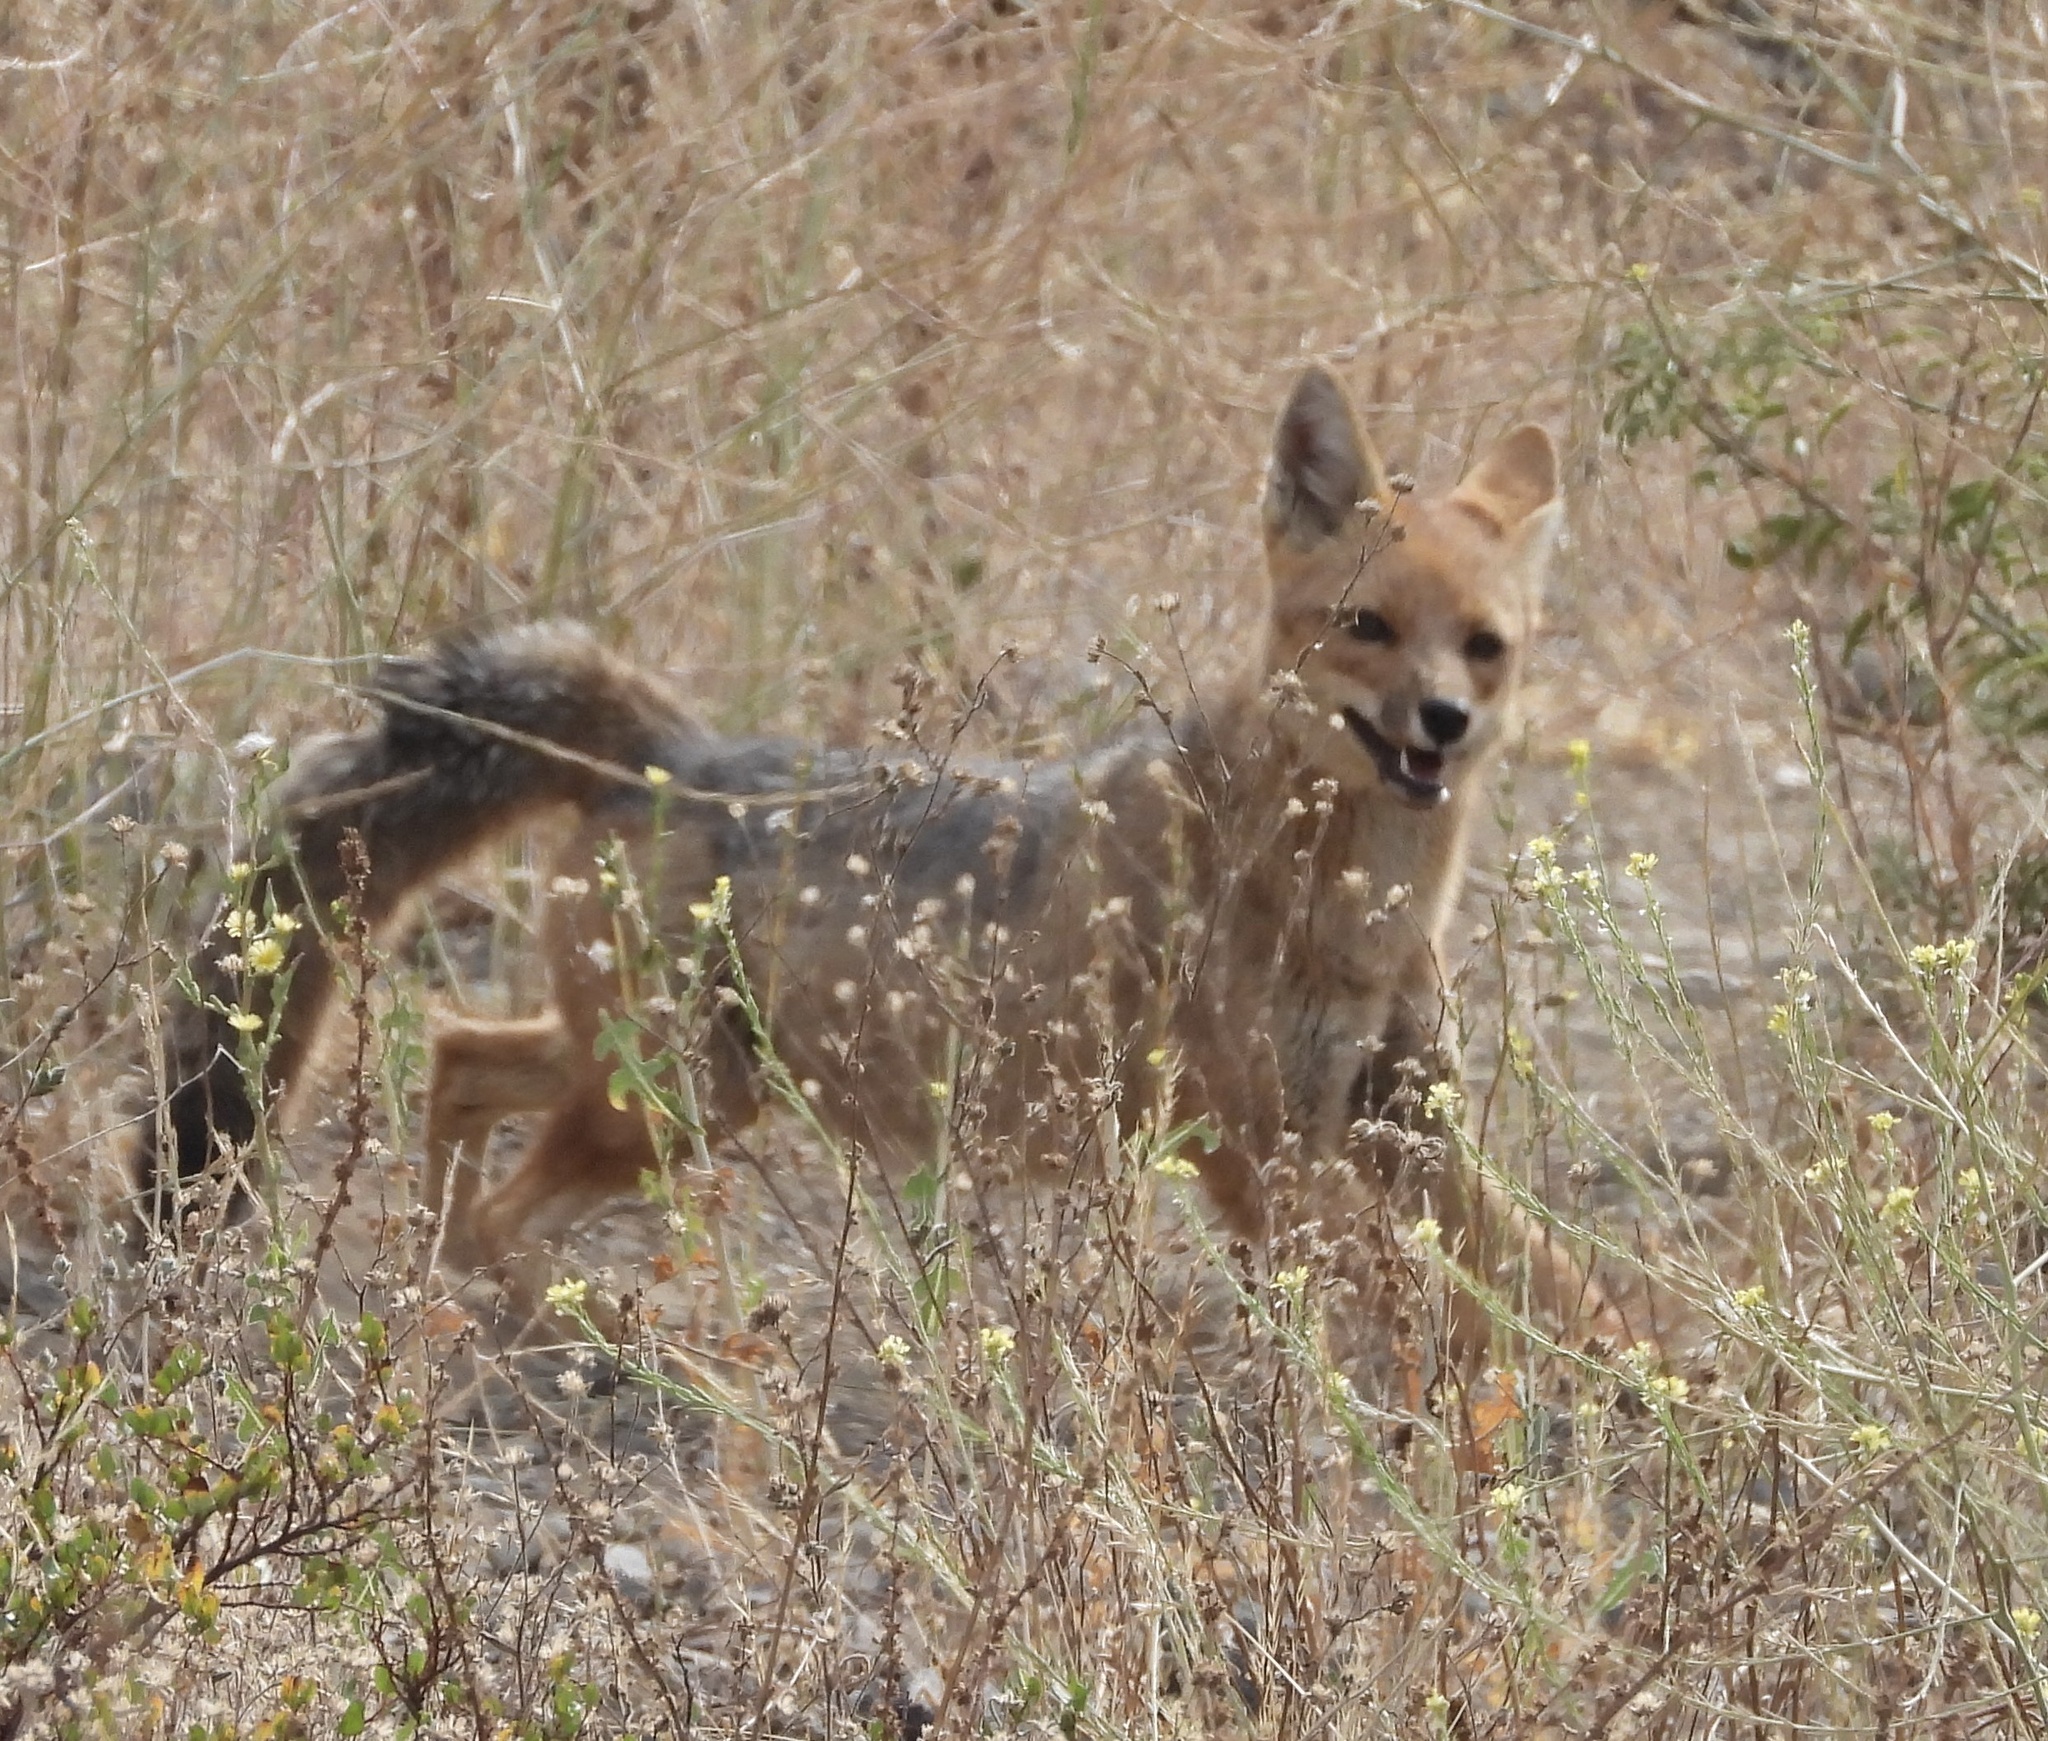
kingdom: Animalia
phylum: Chordata
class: Mammalia
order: Carnivora
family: Canidae
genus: Lycalopex
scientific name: Lycalopex culpaeus
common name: Culpeo
